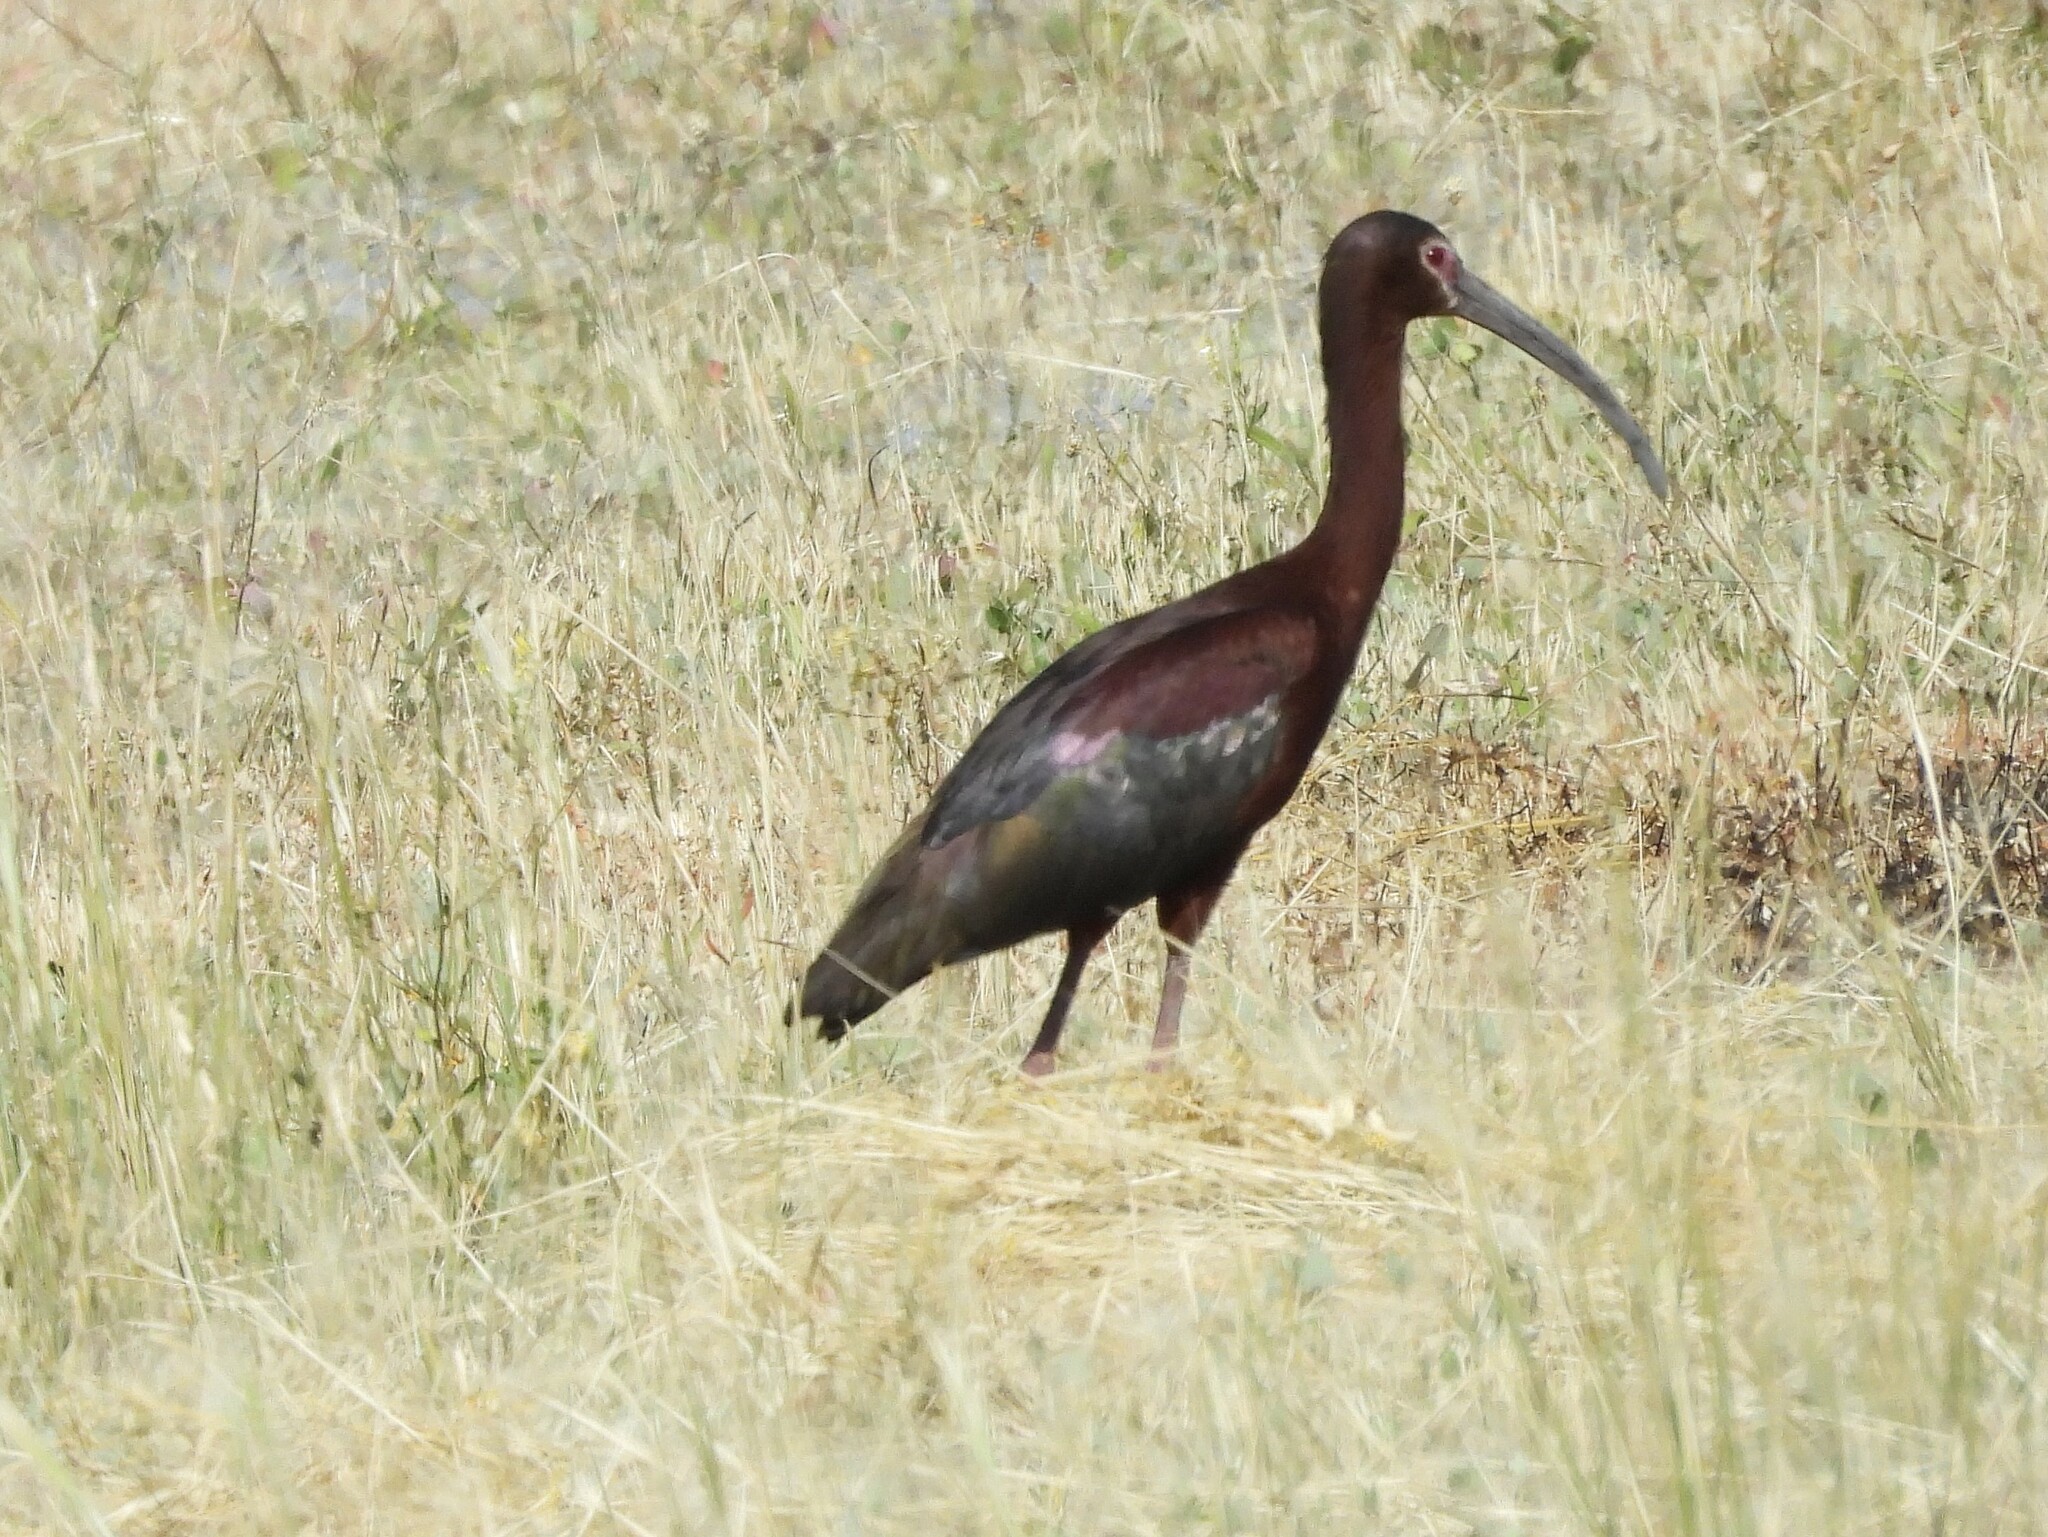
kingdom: Animalia
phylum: Chordata
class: Aves
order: Pelecaniformes
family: Threskiornithidae
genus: Plegadis
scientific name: Plegadis chihi
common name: White-faced ibis
